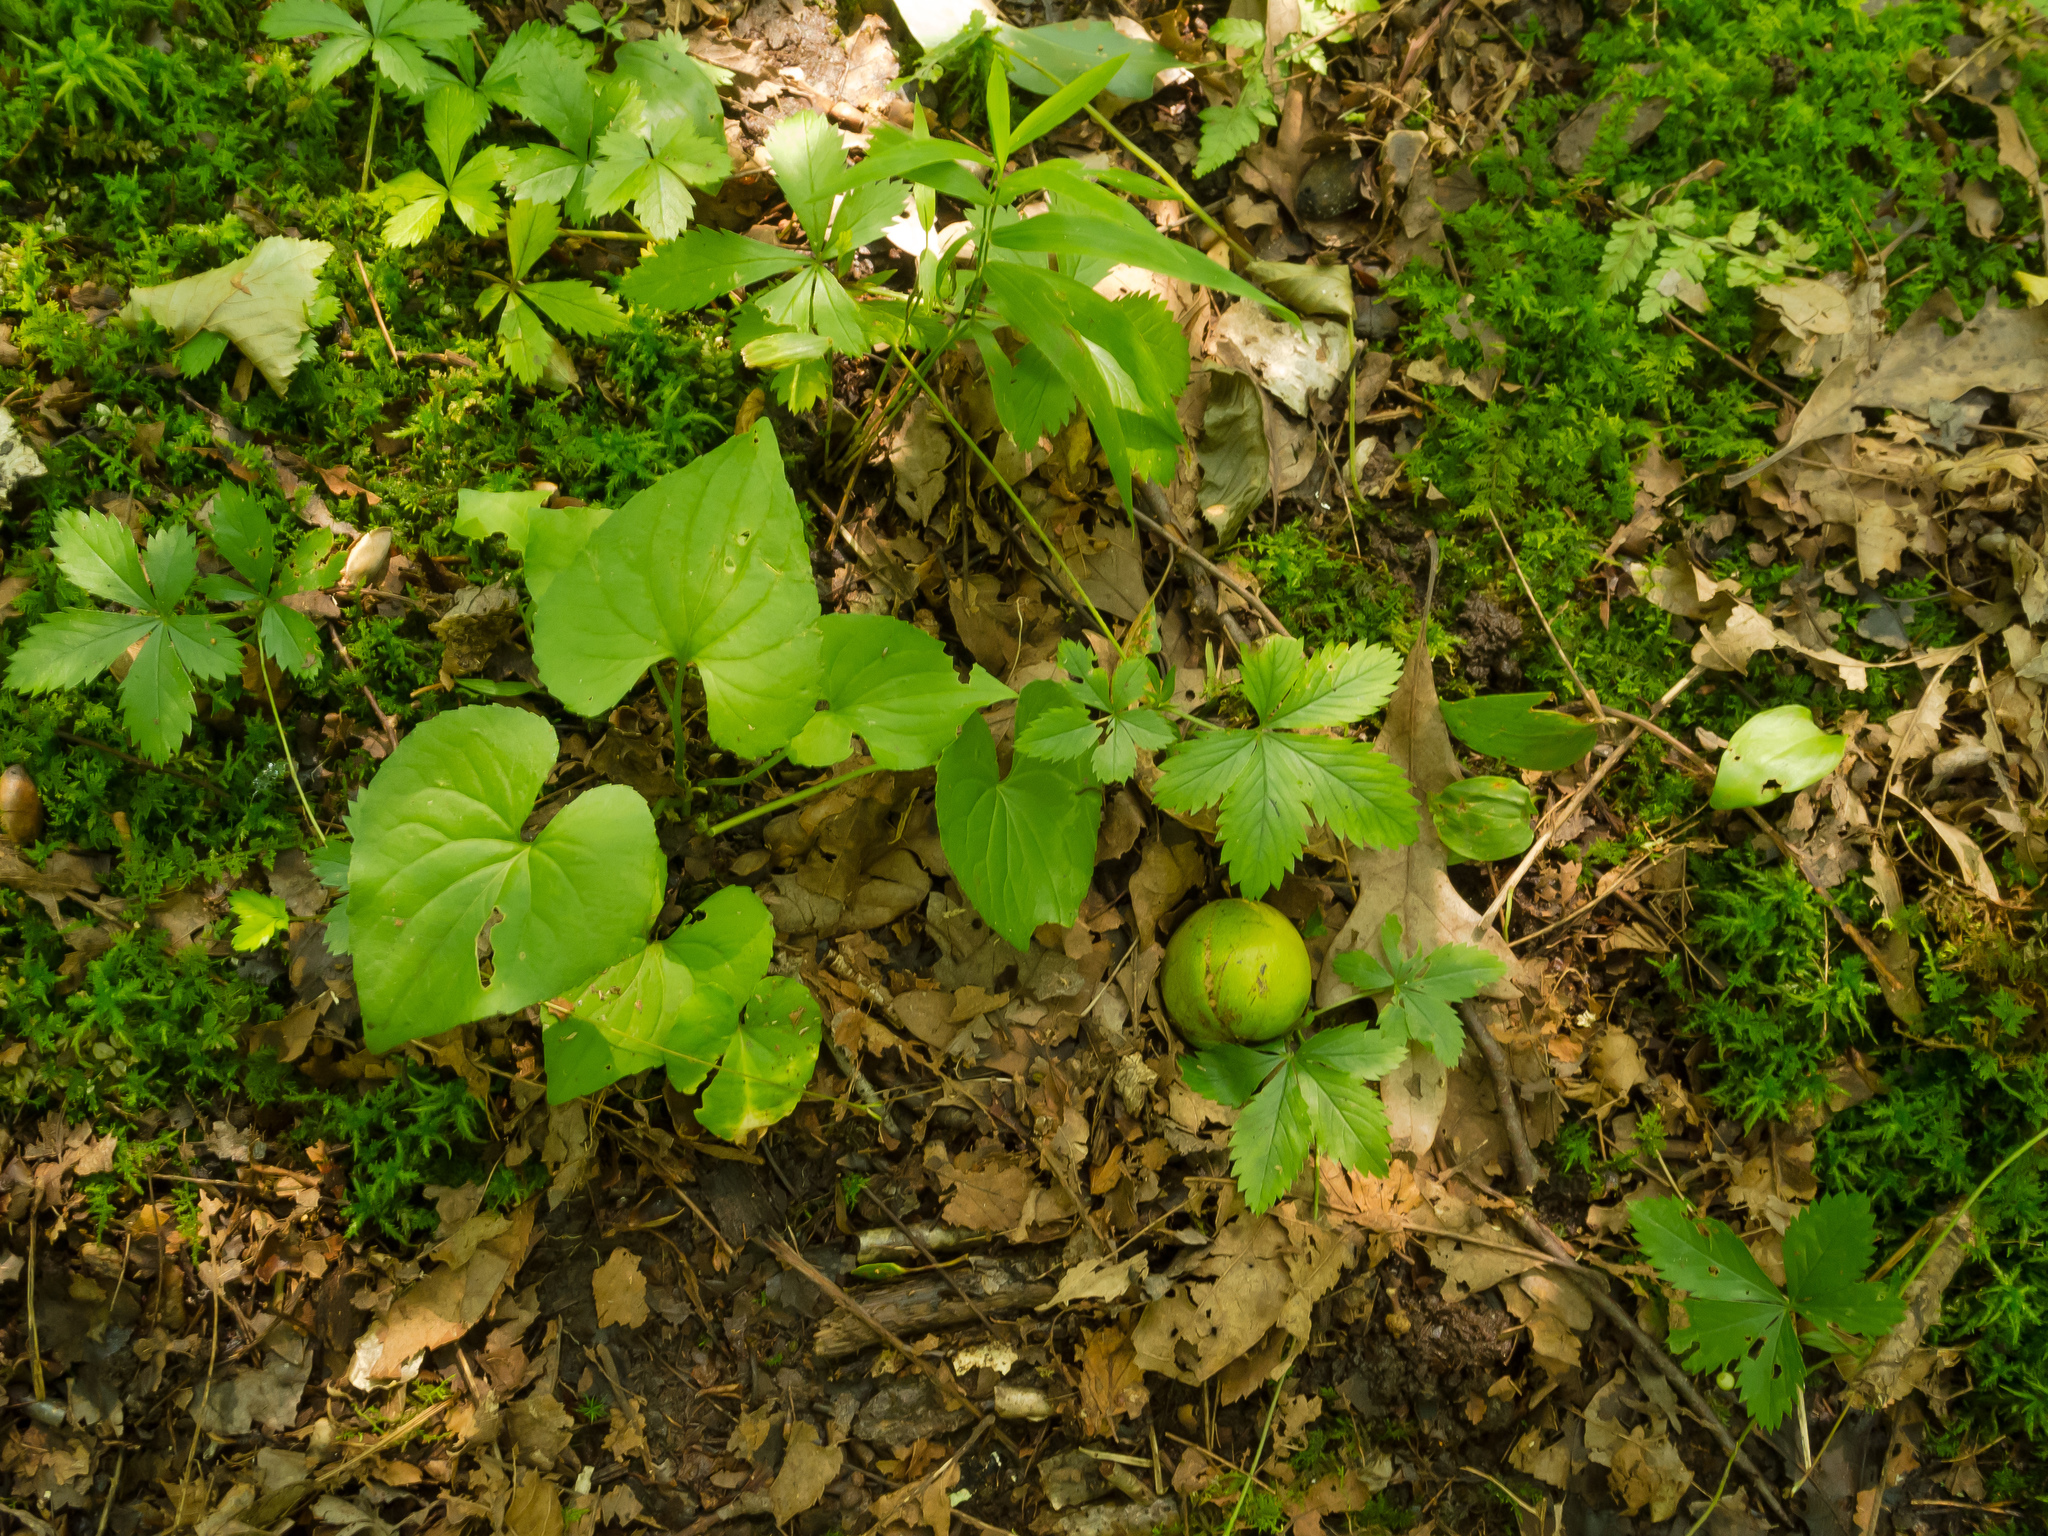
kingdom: Plantae
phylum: Tracheophyta
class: Magnoliopsida
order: Rosales
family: Rosaceae
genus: Potentilla
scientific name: Potentilla canadensis
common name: Canada cinquefoil
